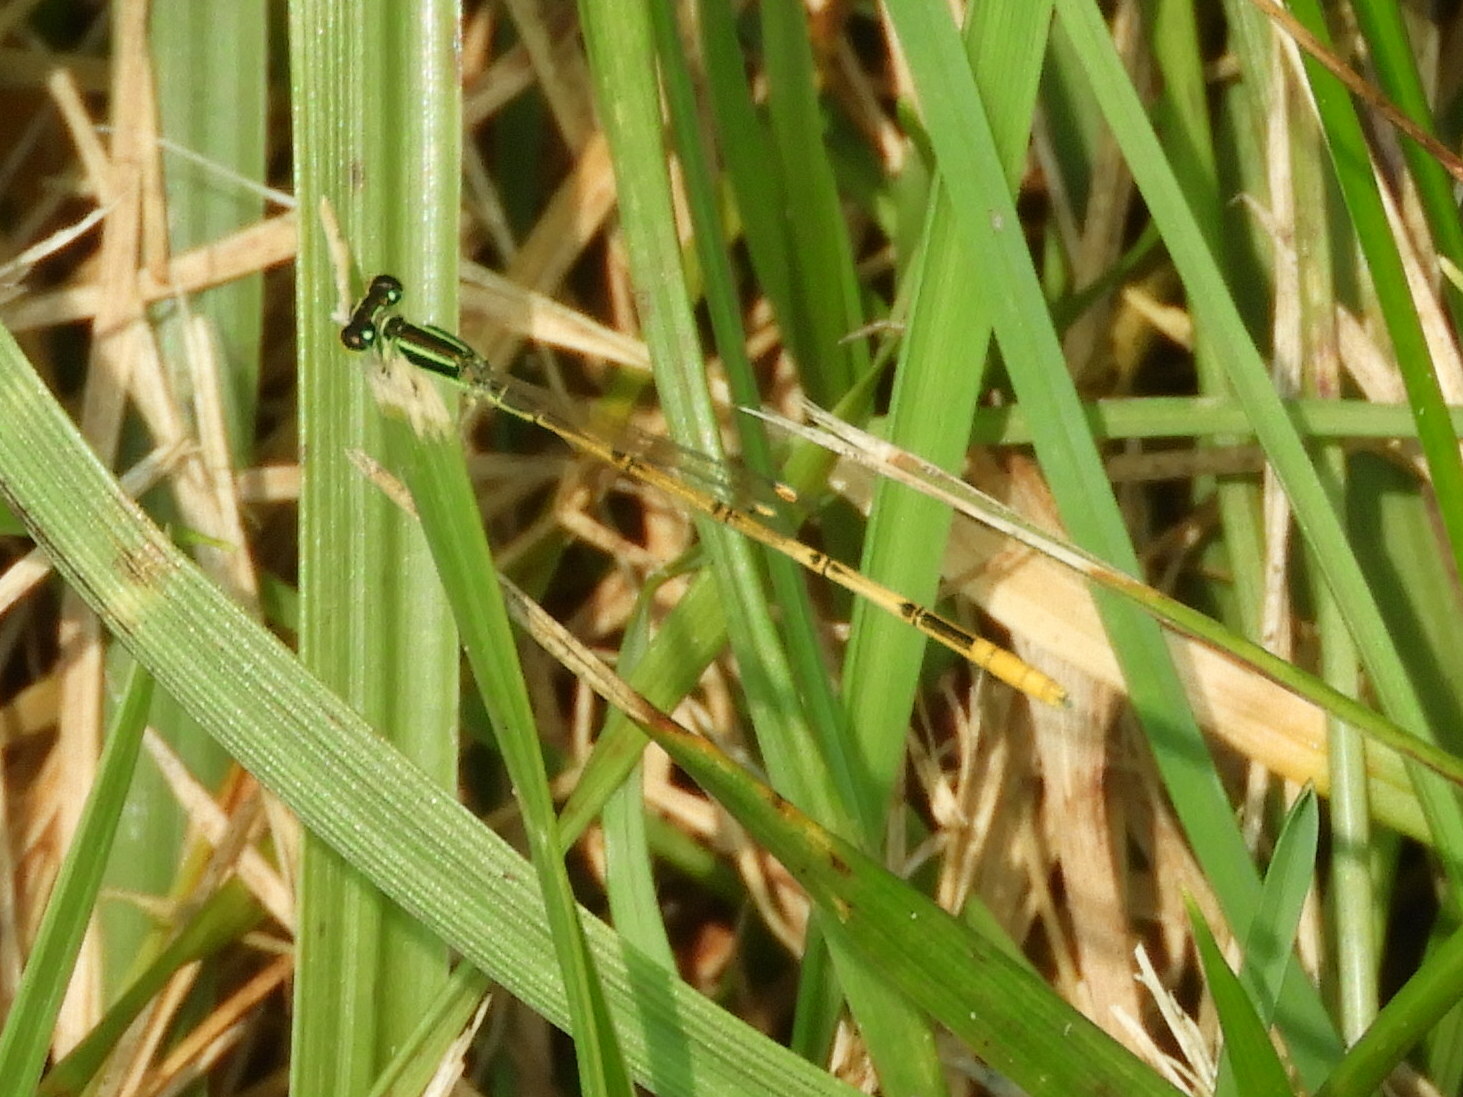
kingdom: Animalia
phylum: Arthropoda
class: Insecta
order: Odonata
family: Coenagrionidae
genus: Ischnura
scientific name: Ischnura hastata
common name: Citrine forktail
